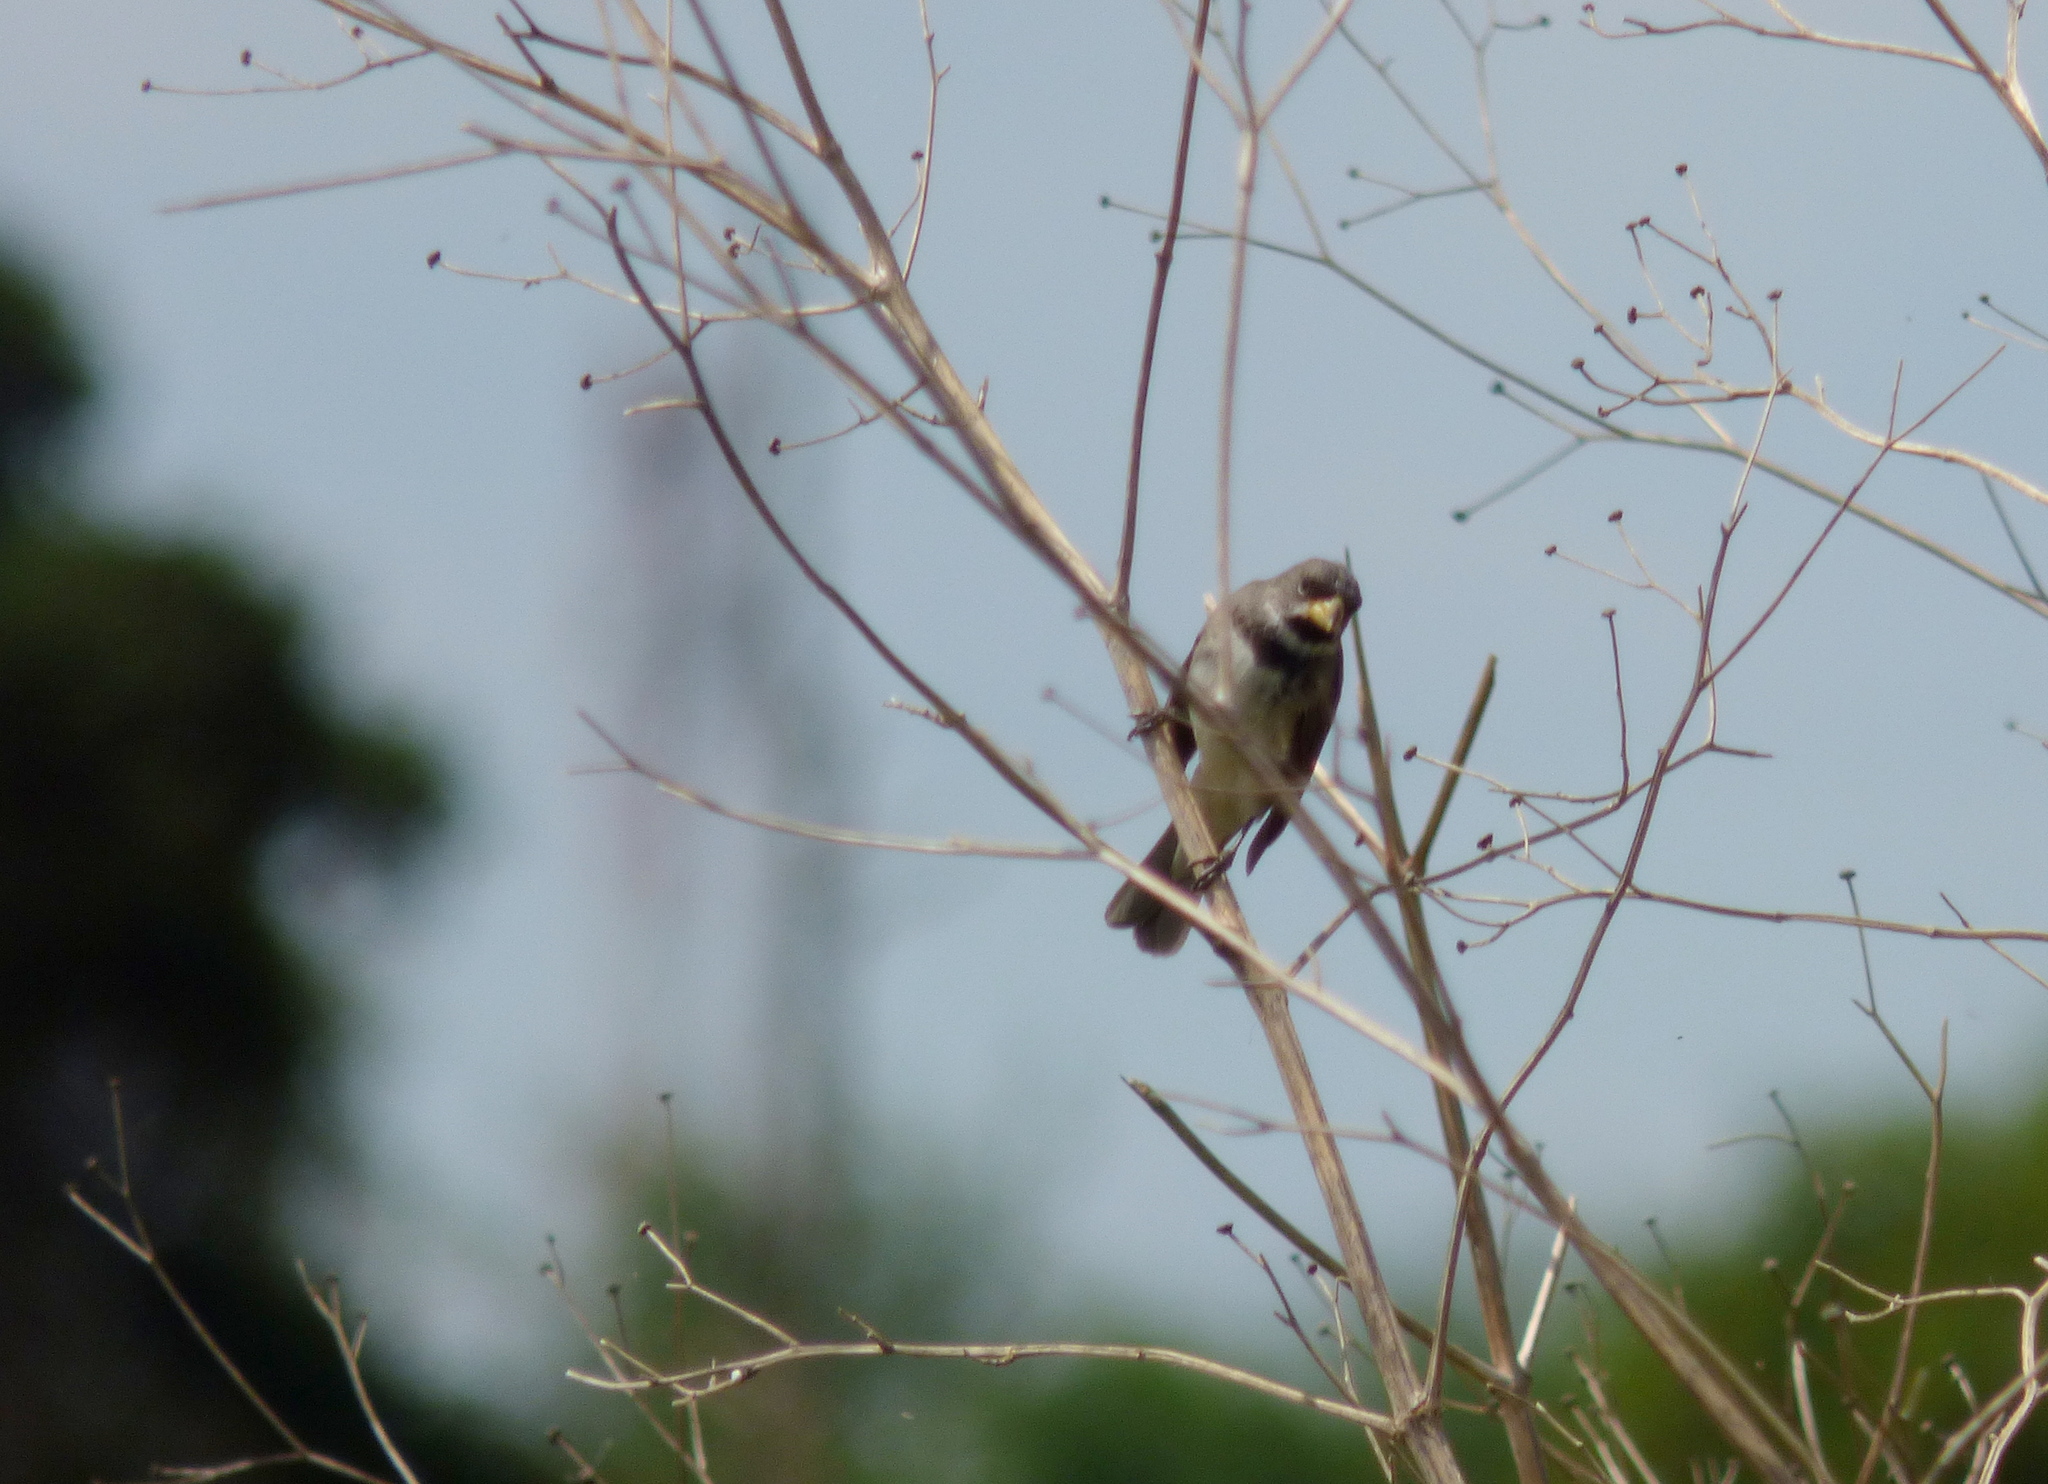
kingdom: Animalia
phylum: Chordata
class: Aves
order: Passeriformes
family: Thraupidae
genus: Sporophila
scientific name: Sporophila caerulescens
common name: Double-collared seedeater
